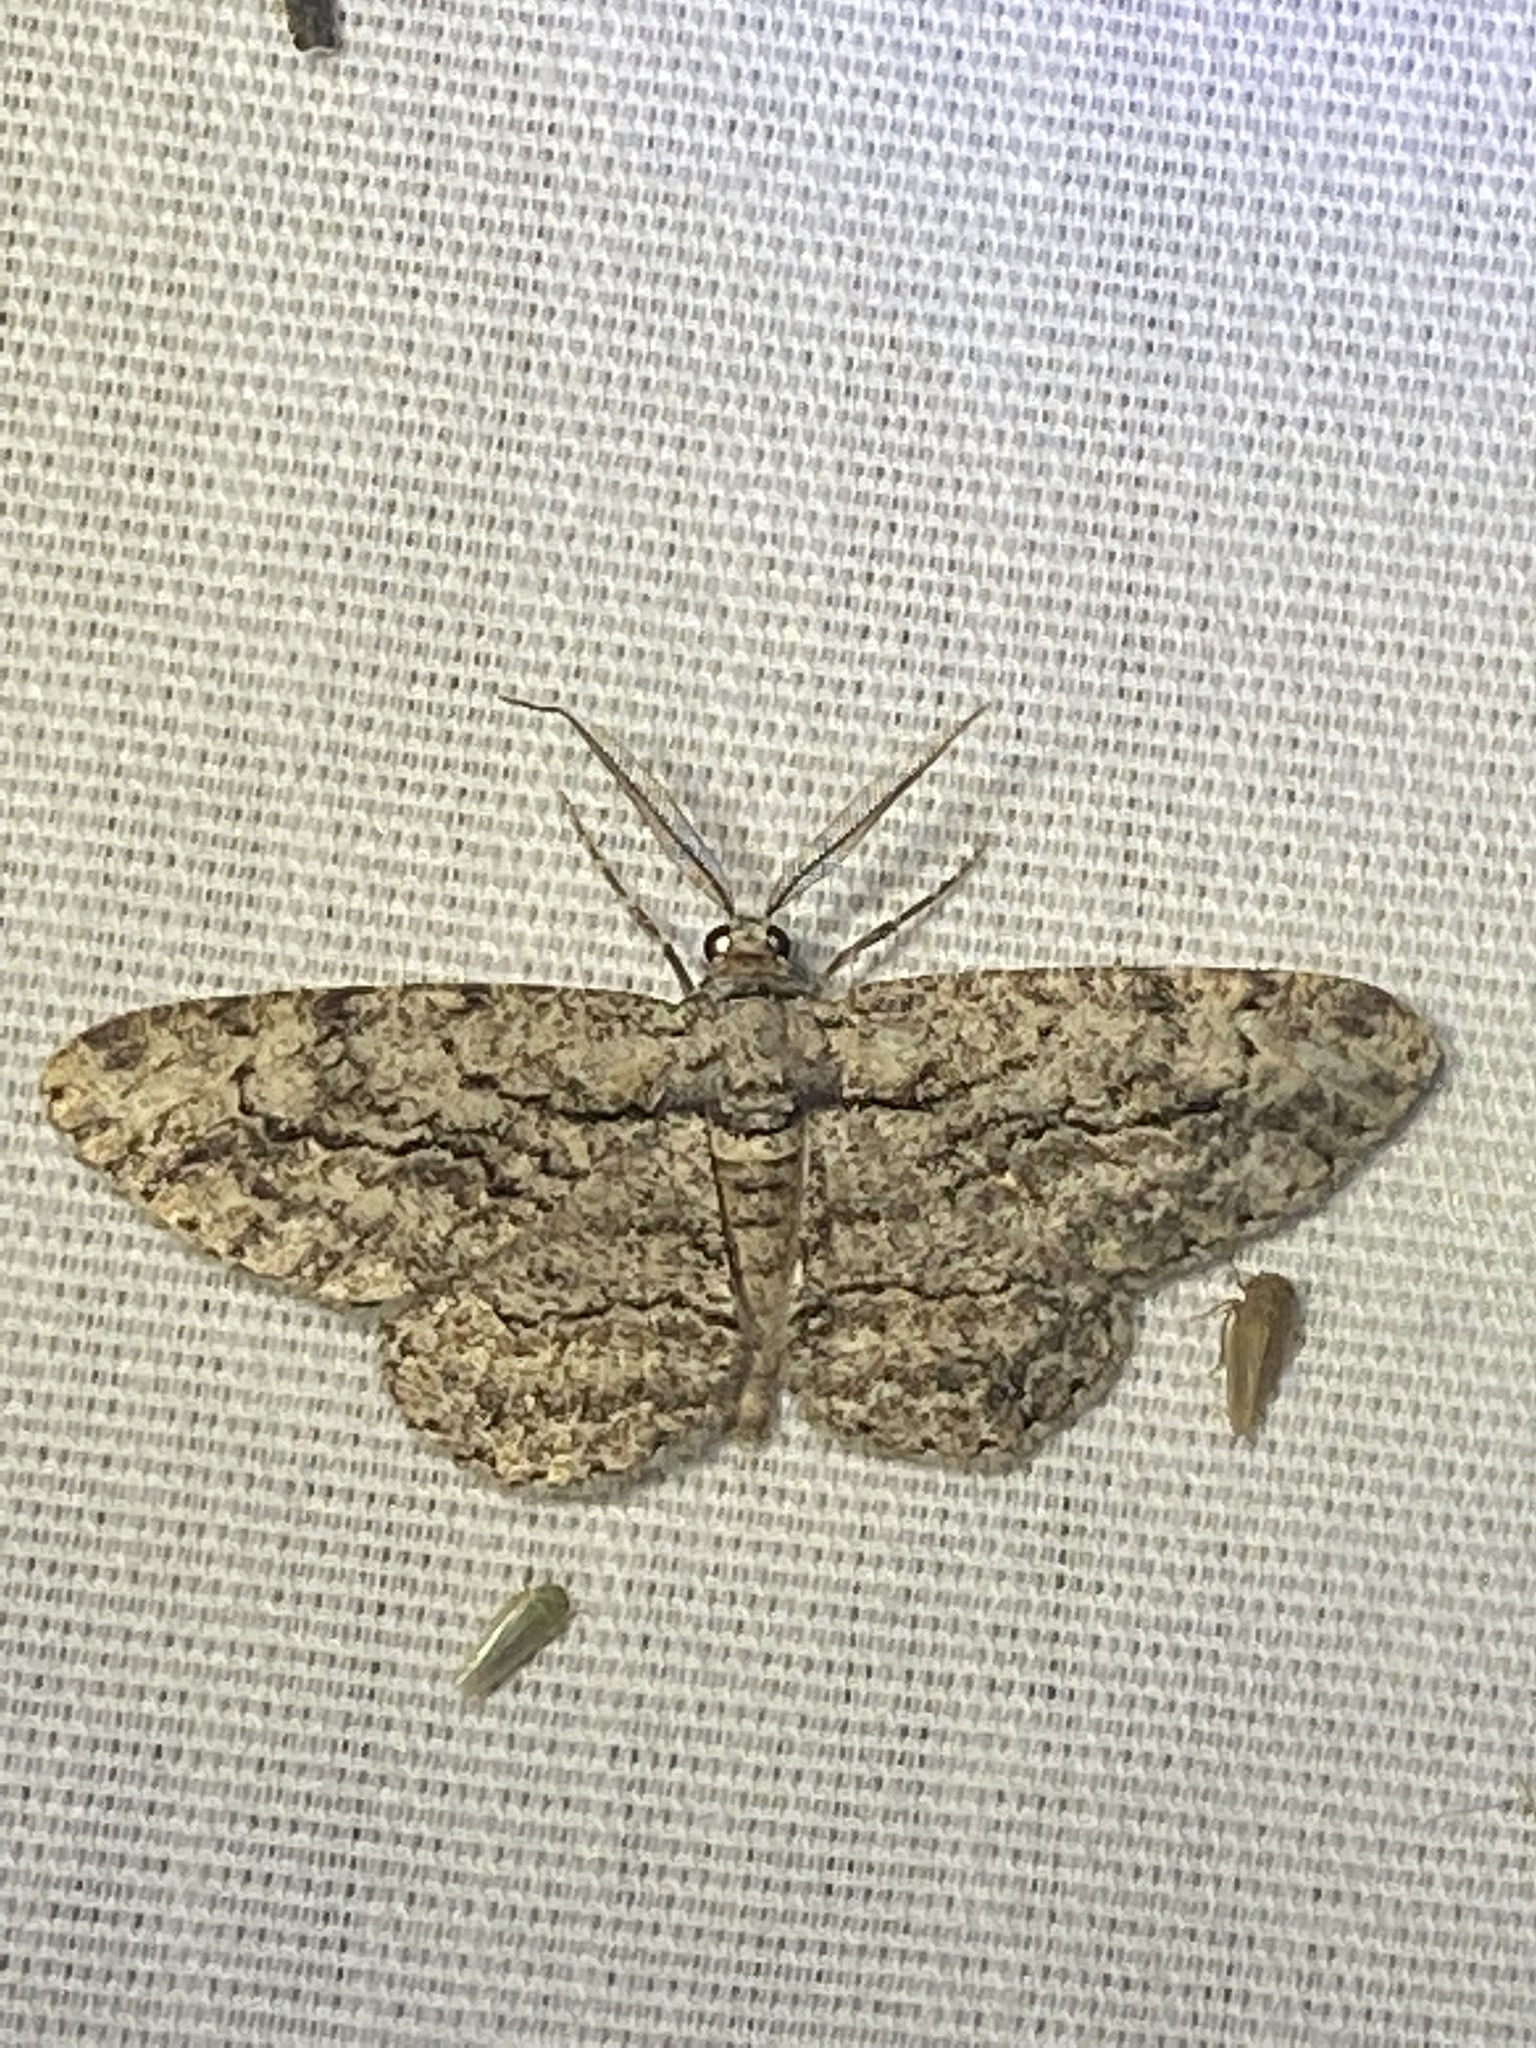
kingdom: Animalia
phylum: Arthropoda
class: Insecta
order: Lepidoptera
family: Geometridae
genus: Anavitrinella
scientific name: Anavitrinella pampinaria
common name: Common gray
